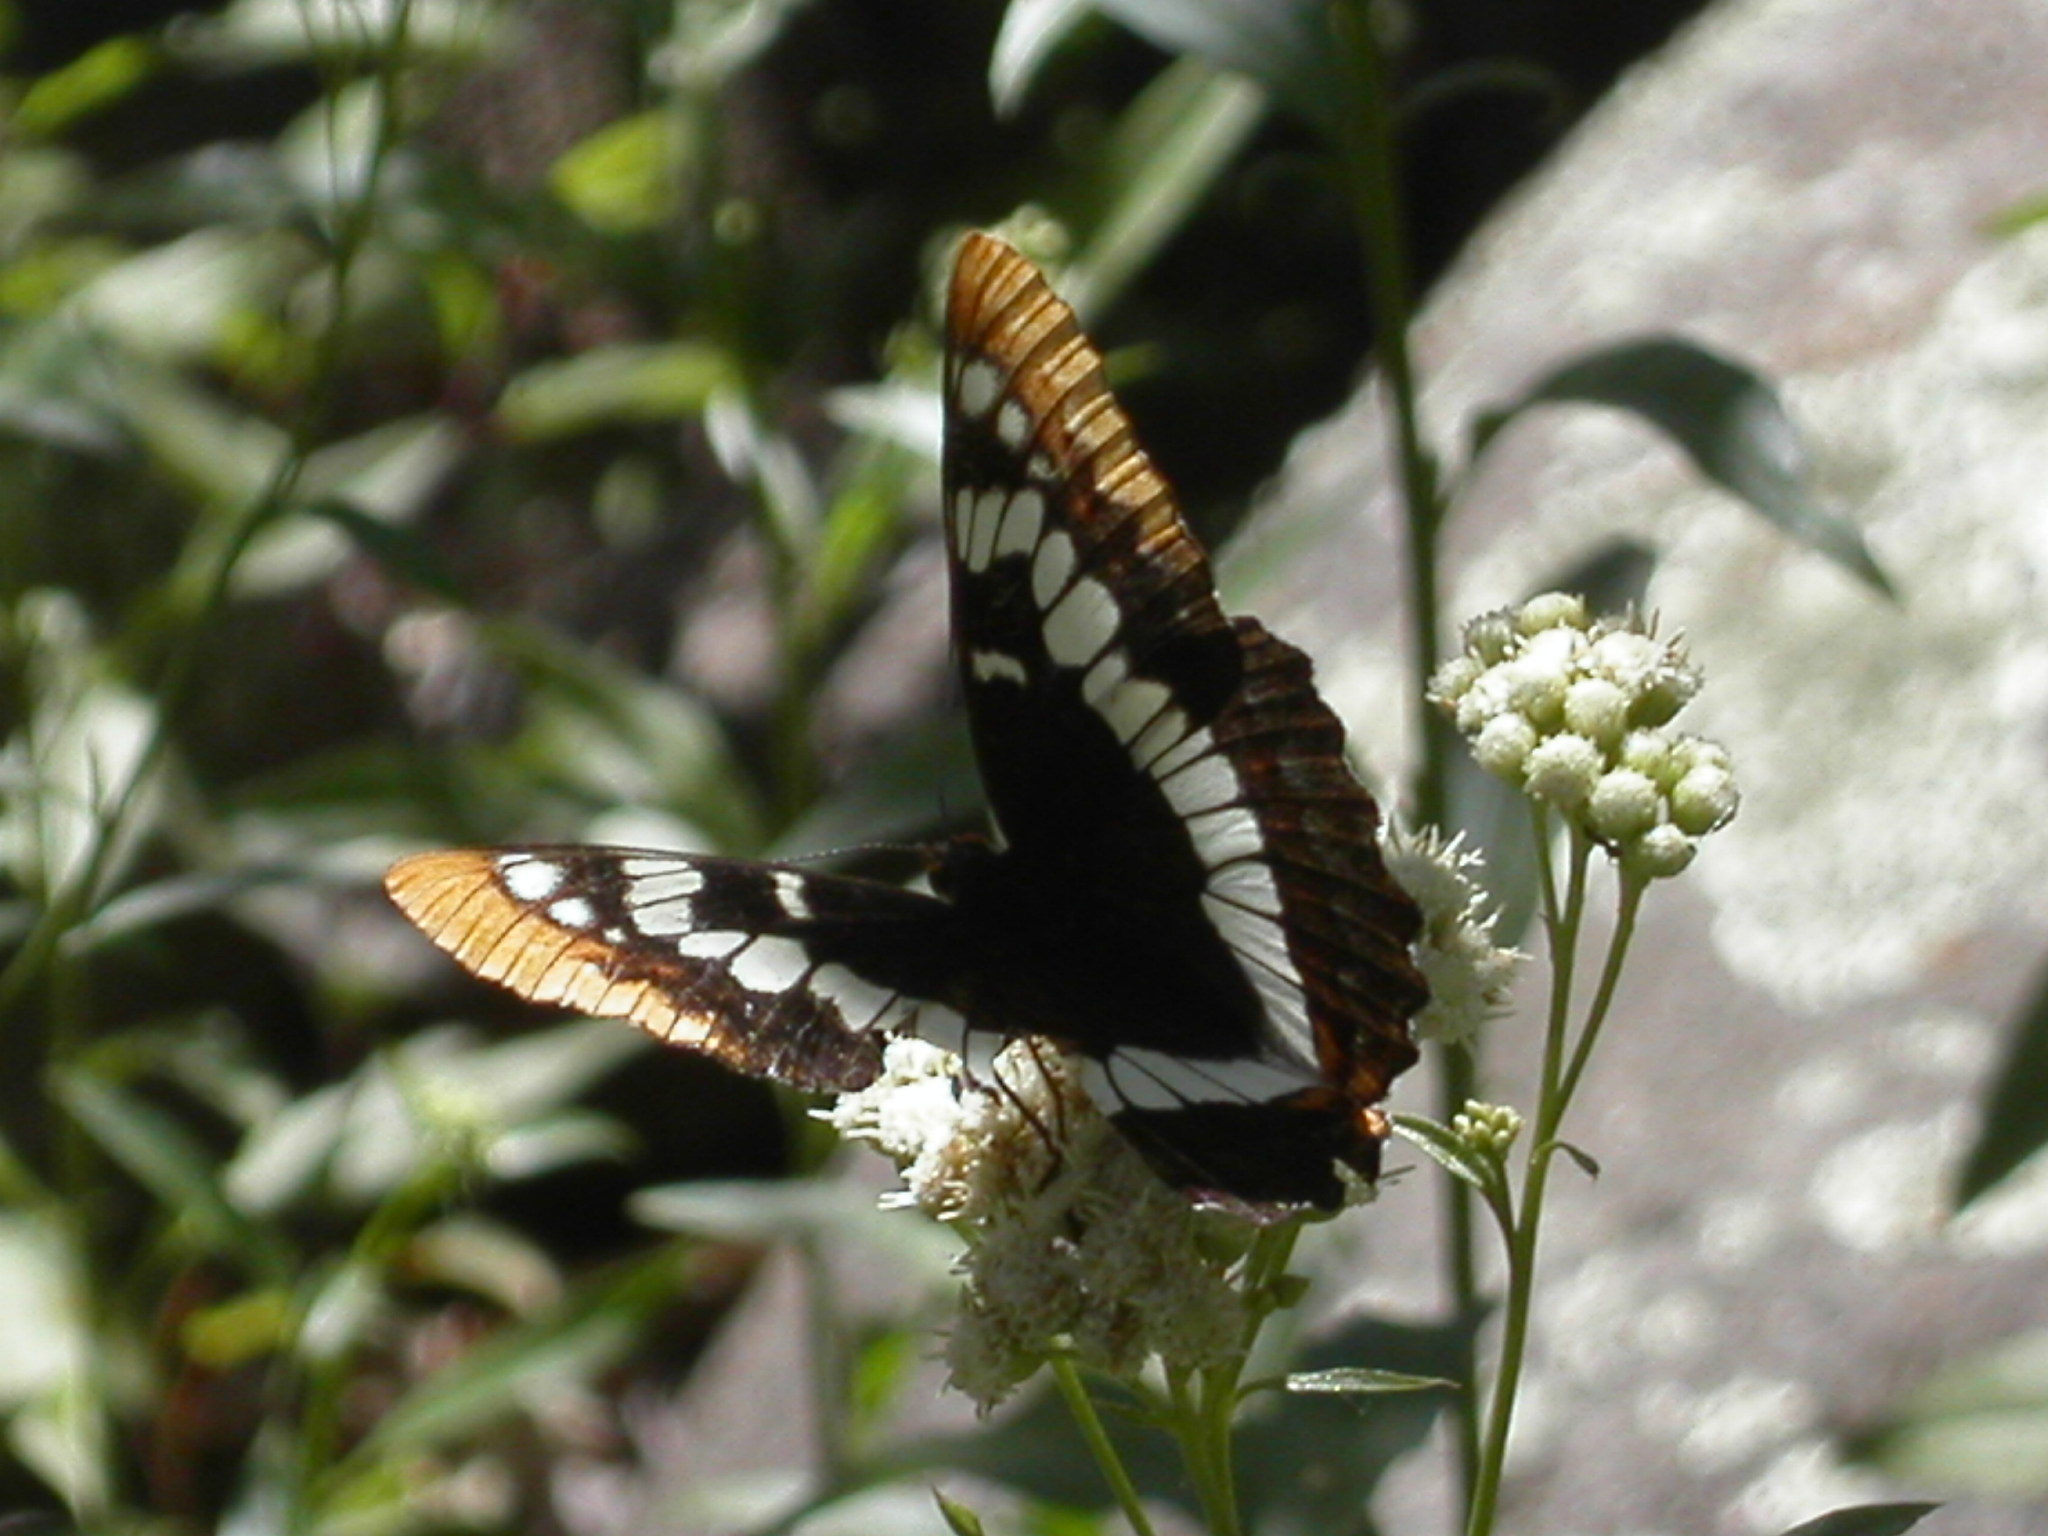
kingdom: Animalia
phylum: Arthropoda
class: Insecta
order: Lepidoptera
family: Nymphalidae
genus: Limenitis
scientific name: Limenitis lorquini
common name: Lorquin's admiral
